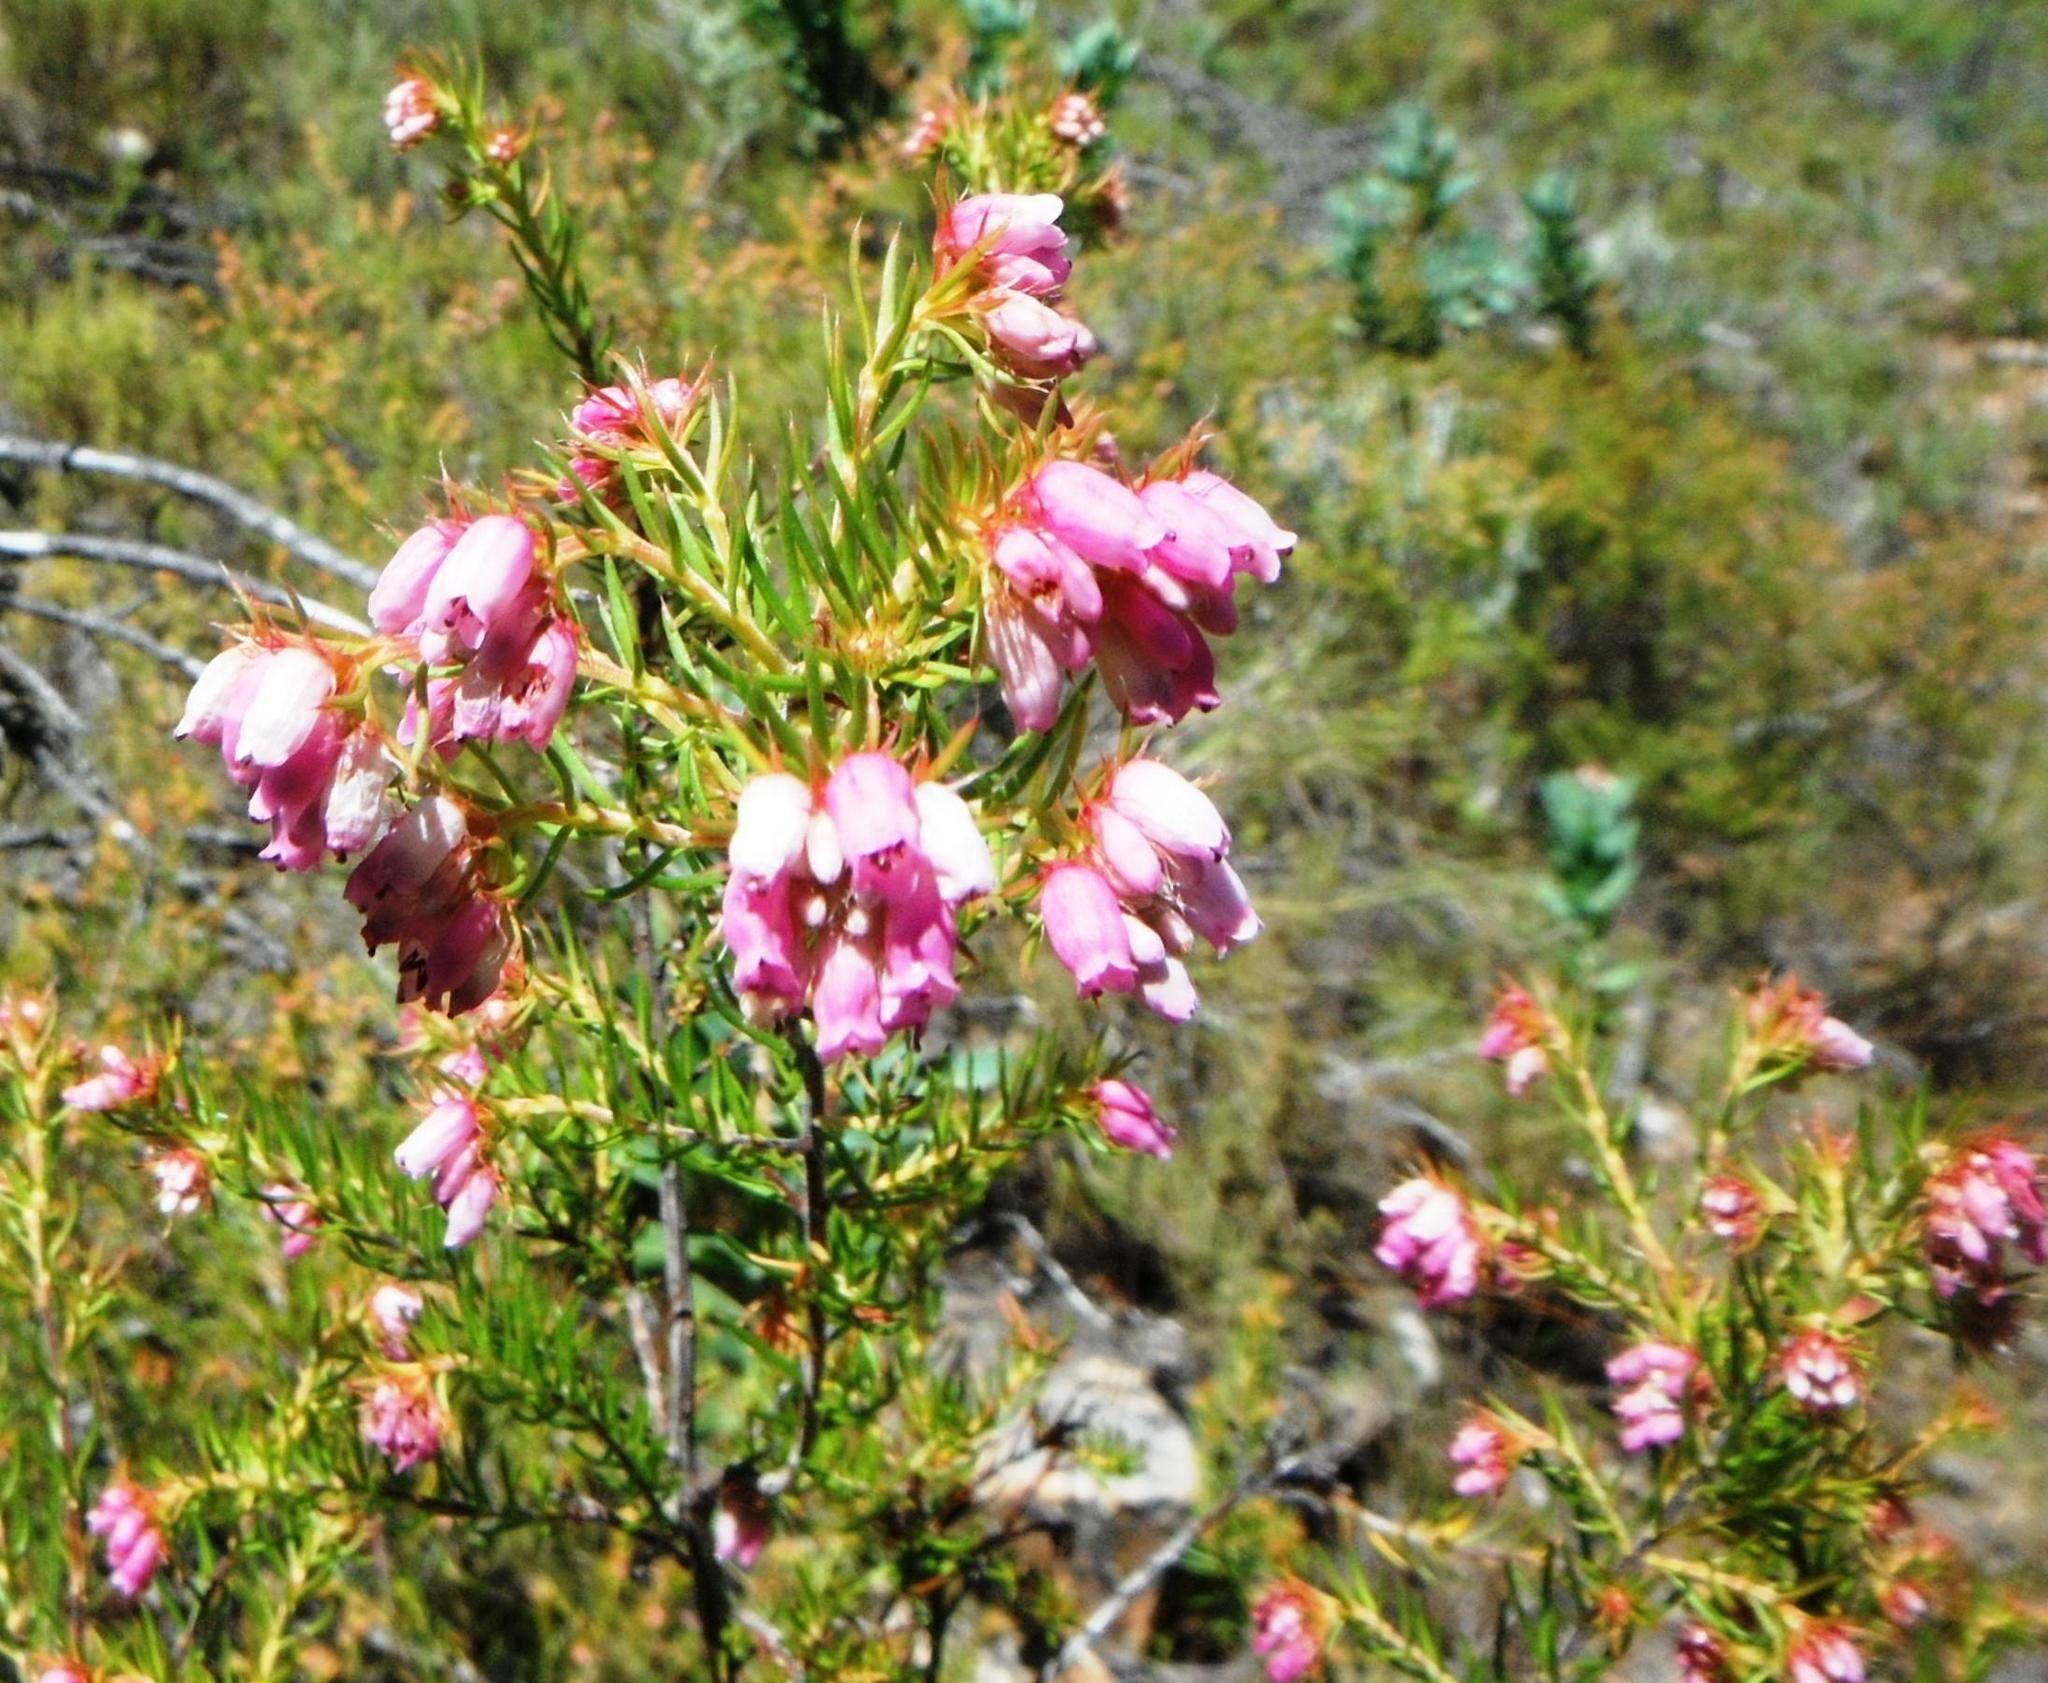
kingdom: Plantae
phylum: Tracheophyta
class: Magnoliopsida
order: Ericales
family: Ericaceae
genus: Erica
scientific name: Erica subulata
